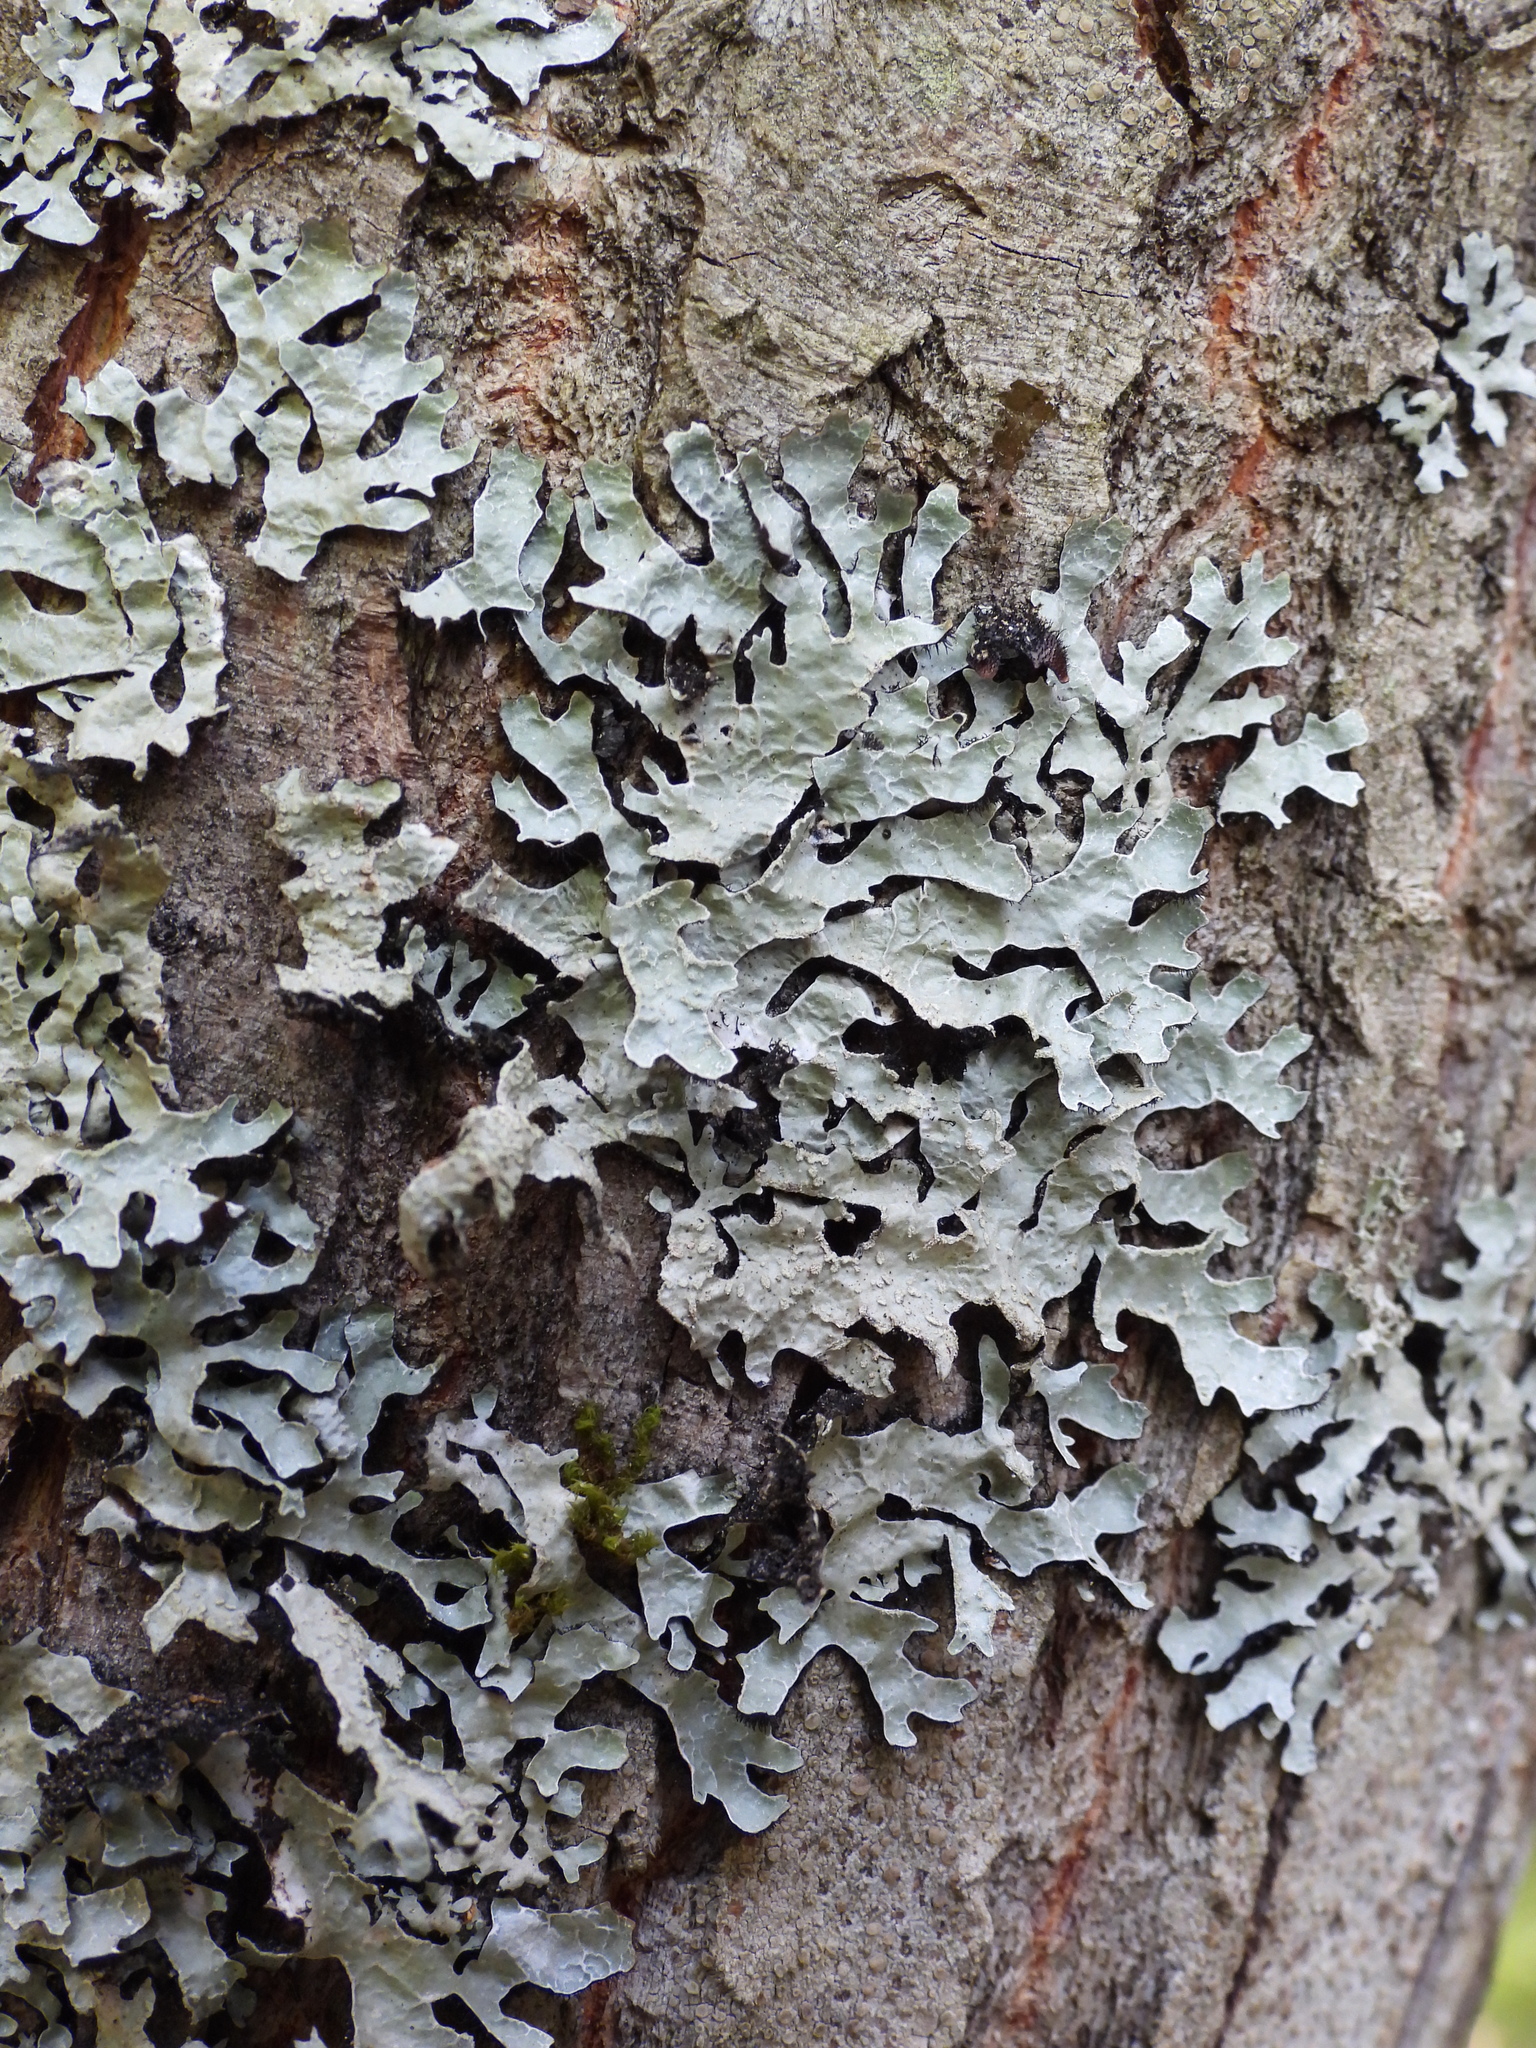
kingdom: Fungi
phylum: Ascomycota
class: Lecanoromycetes
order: Lecanorales
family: Parmeliaceae
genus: Parmelia
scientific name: Parmelia sulcata
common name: Netted shield lichen
